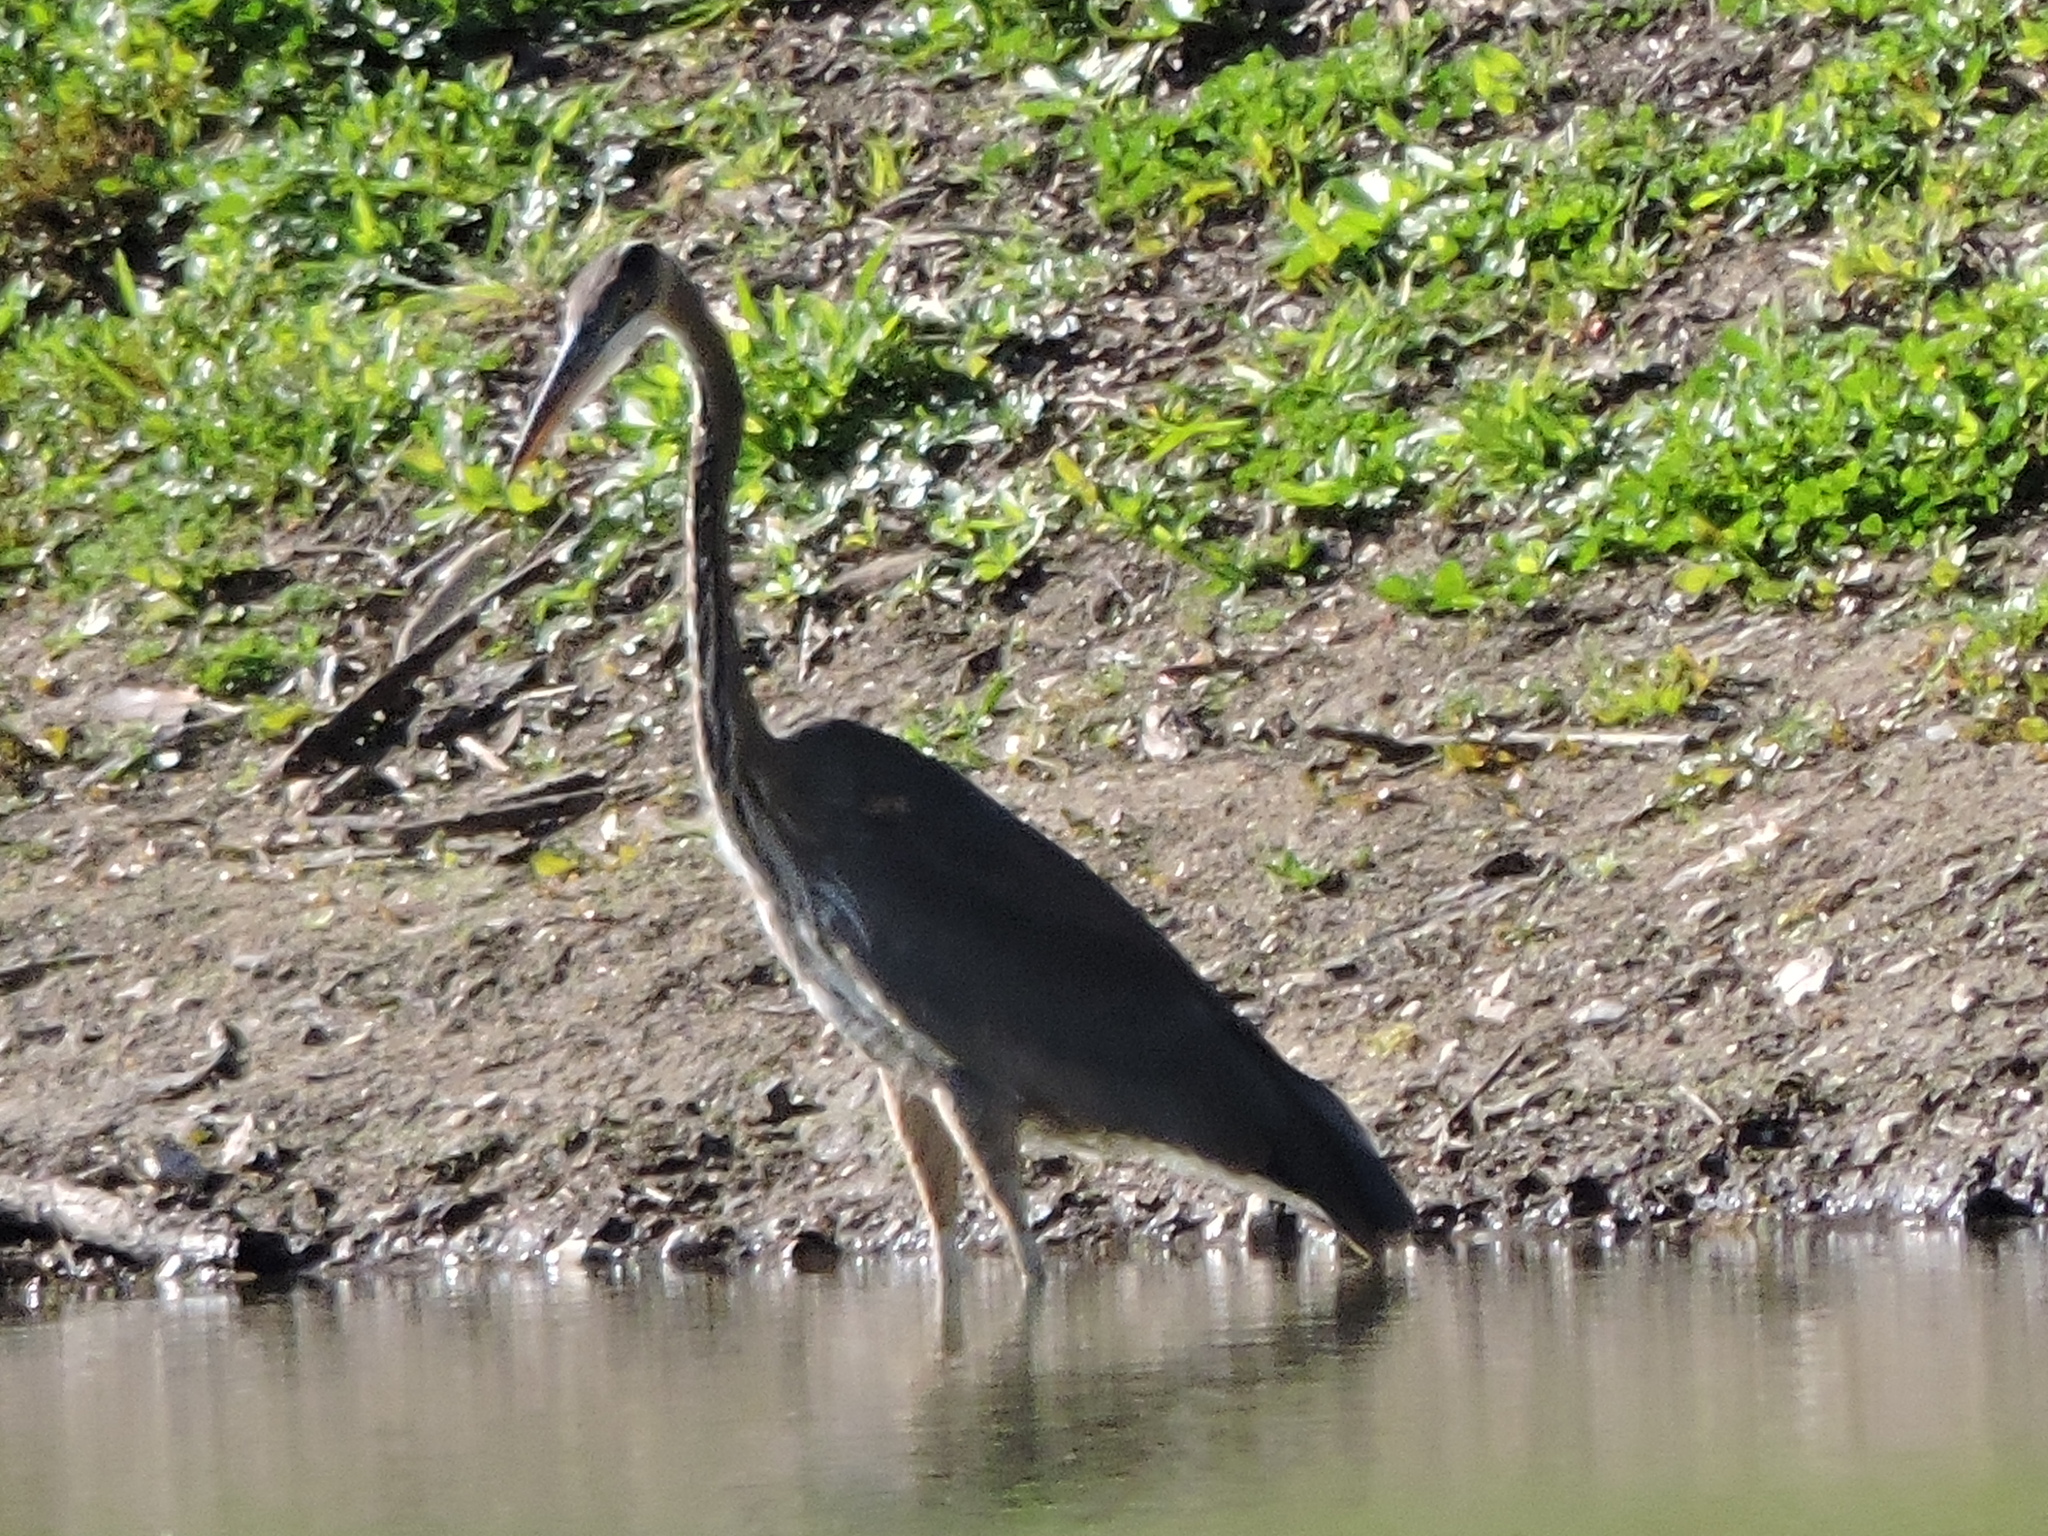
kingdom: Animalia
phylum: Chordata
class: Aves
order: Pelecaniformes
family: Ardeidae
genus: Ardea
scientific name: Ardea herodias
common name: Great blue heron
